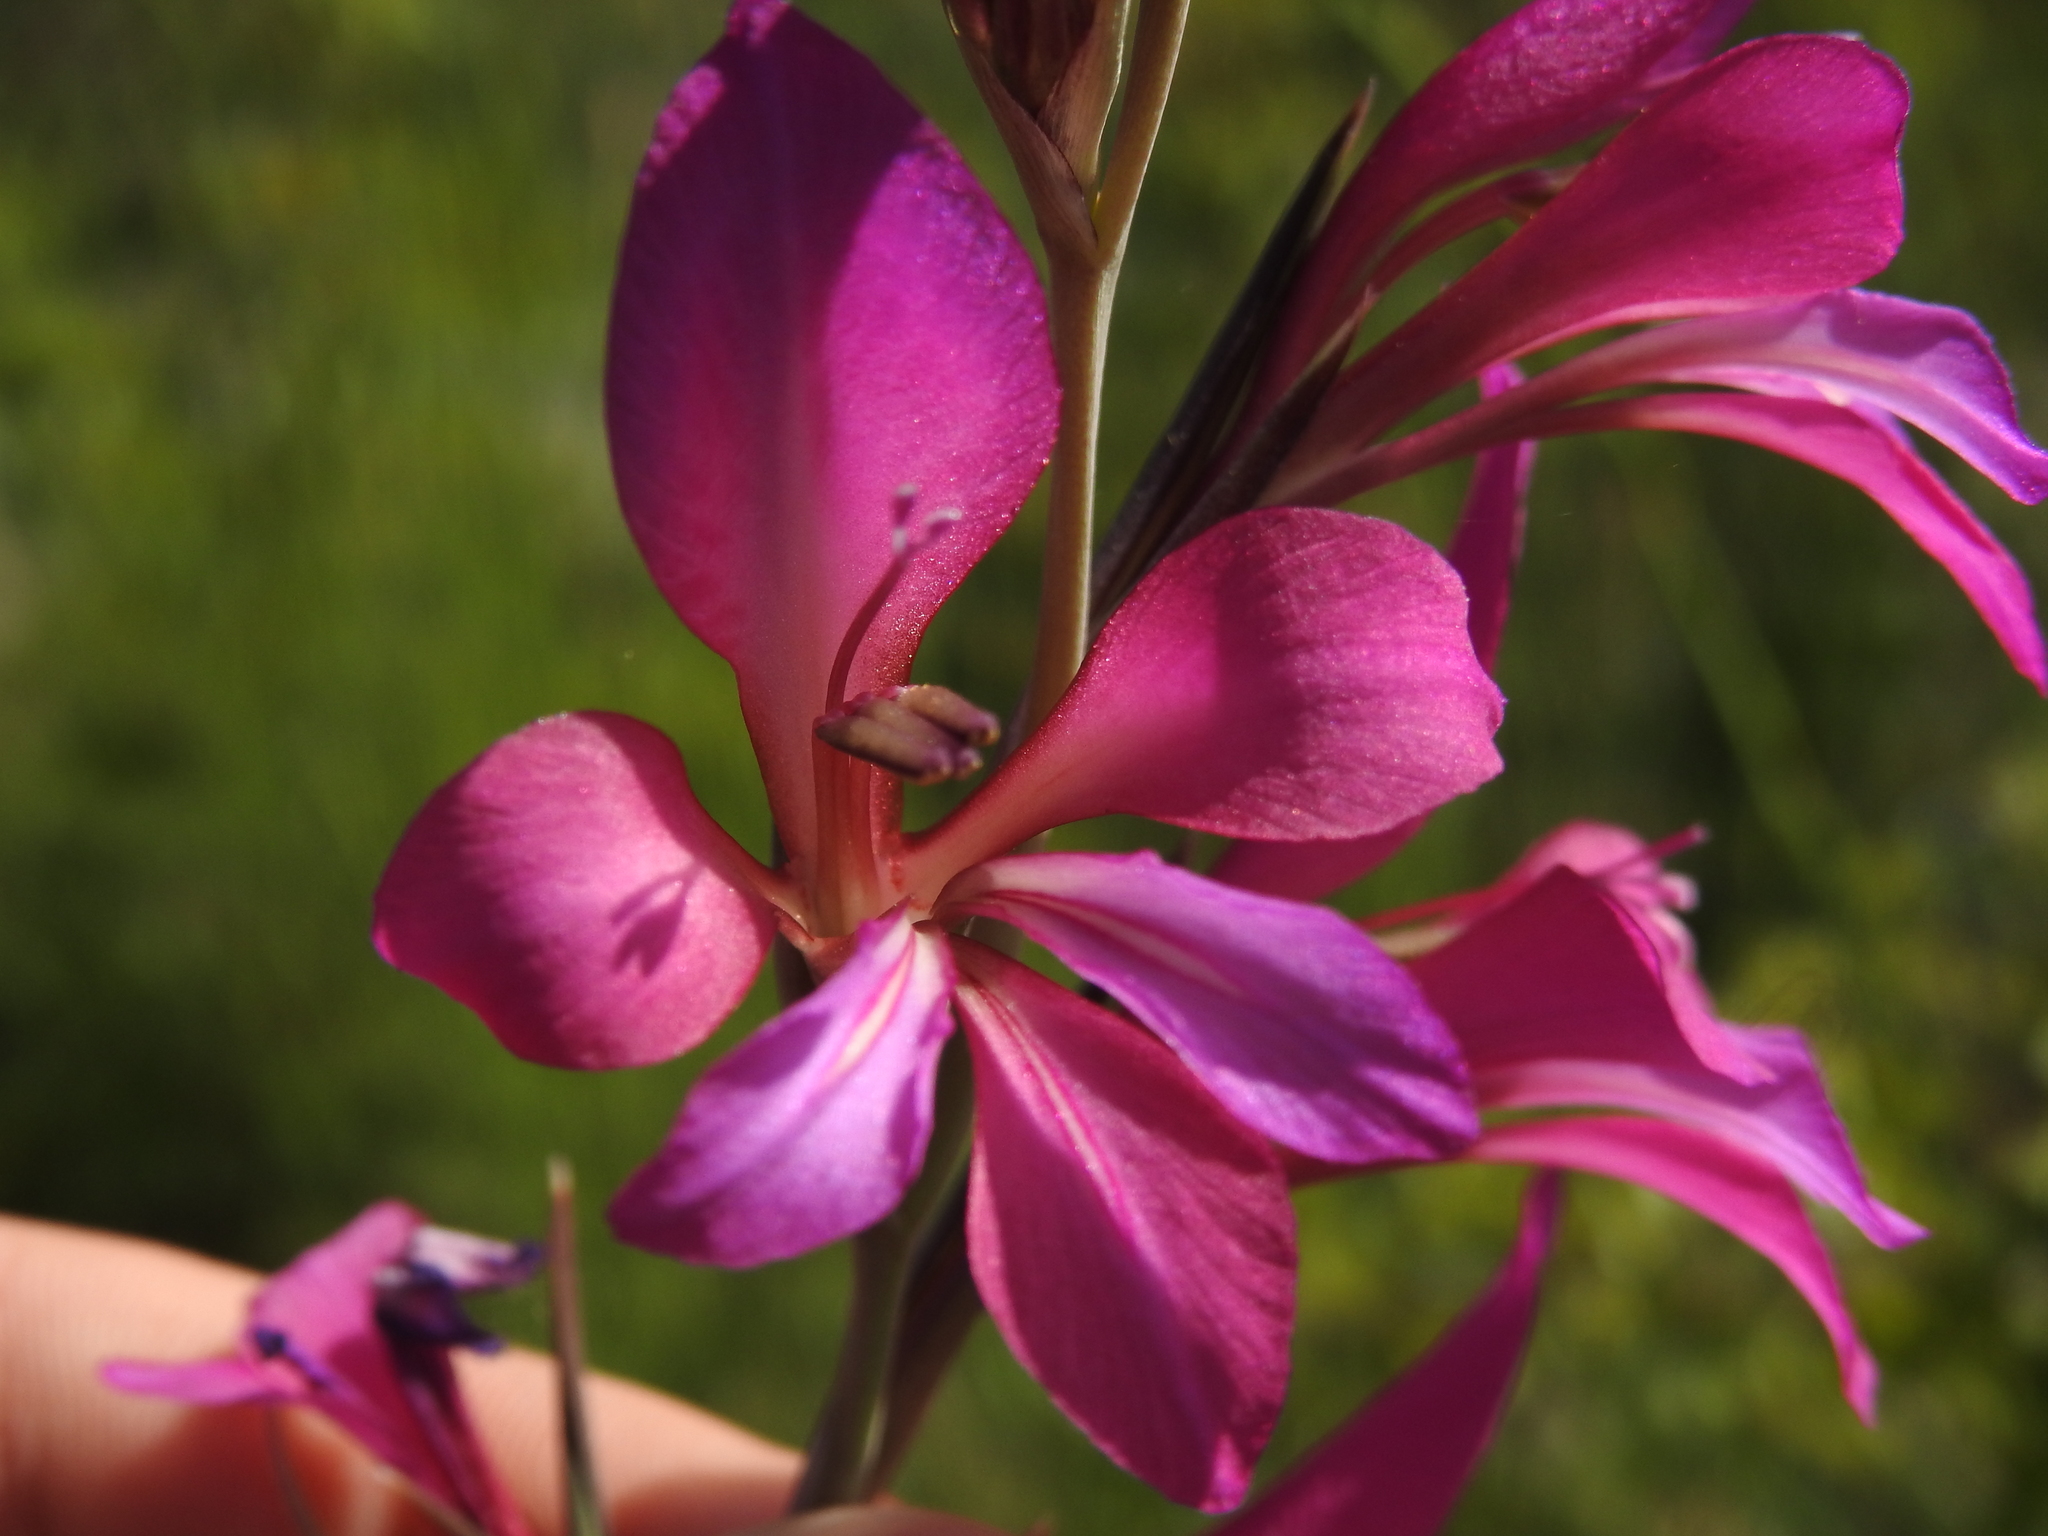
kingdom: Plantae
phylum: Tracheophyta
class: Liliopsida
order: Asparagales
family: Iridaceae
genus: Gladiolus
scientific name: Gladiolus dubius
